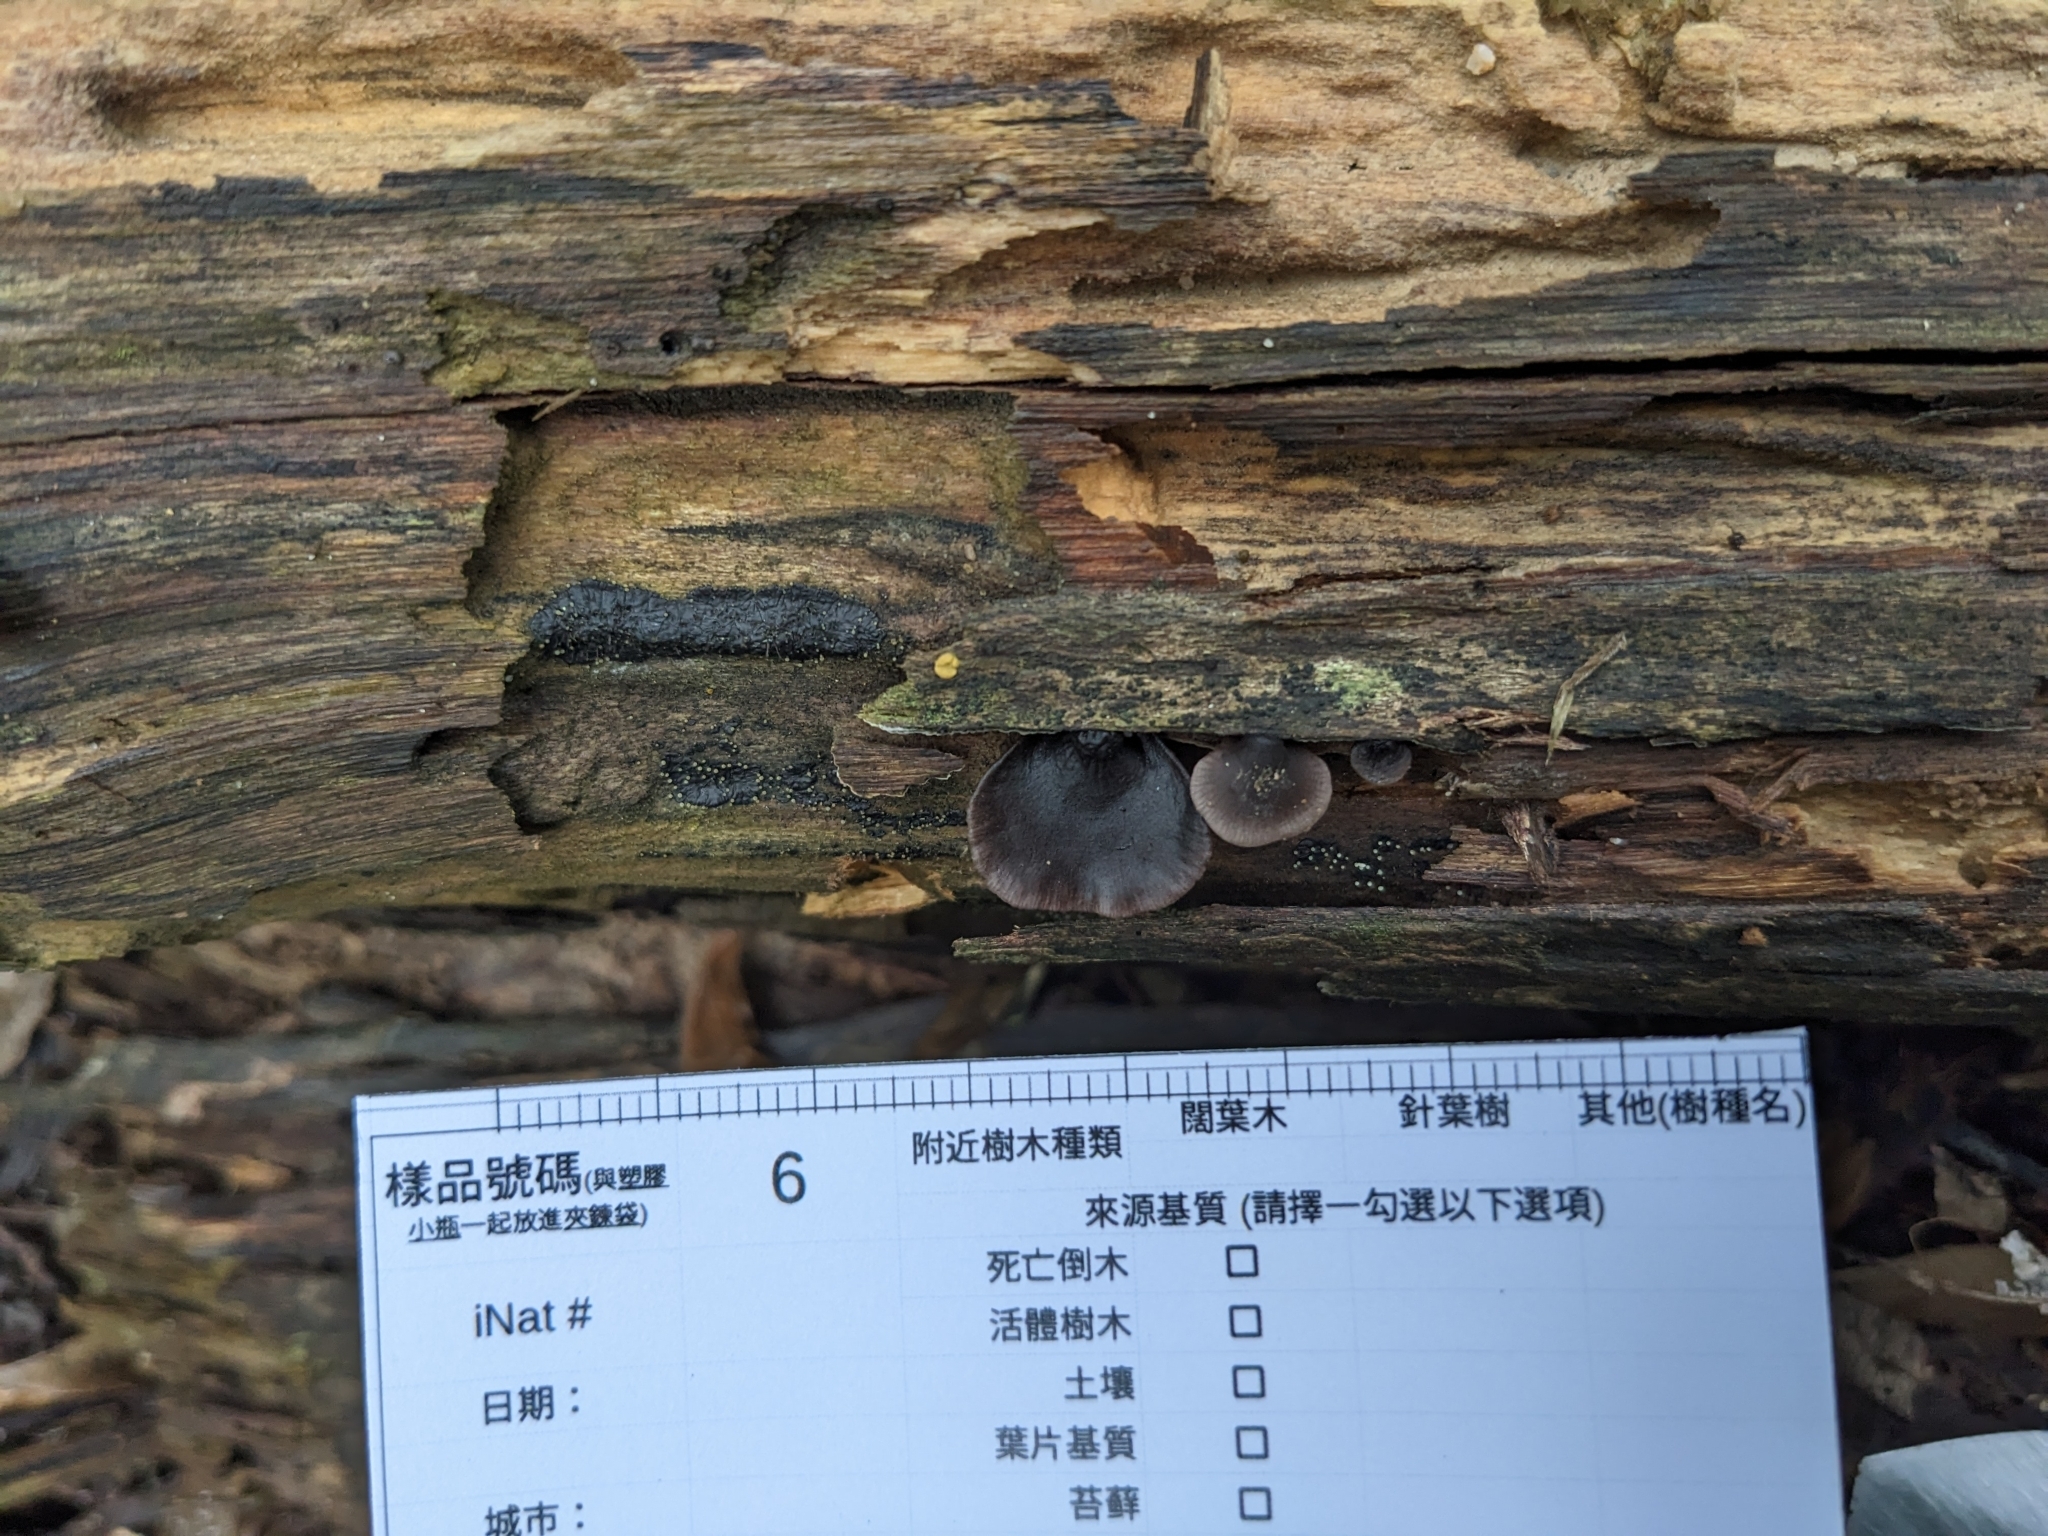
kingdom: Fungi
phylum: Basidiomycota
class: Agaricomycetes
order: Agaricales
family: Pleurotaceae
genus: Resupinatus
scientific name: Resupinatus applicatus
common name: Smoked oysterling
